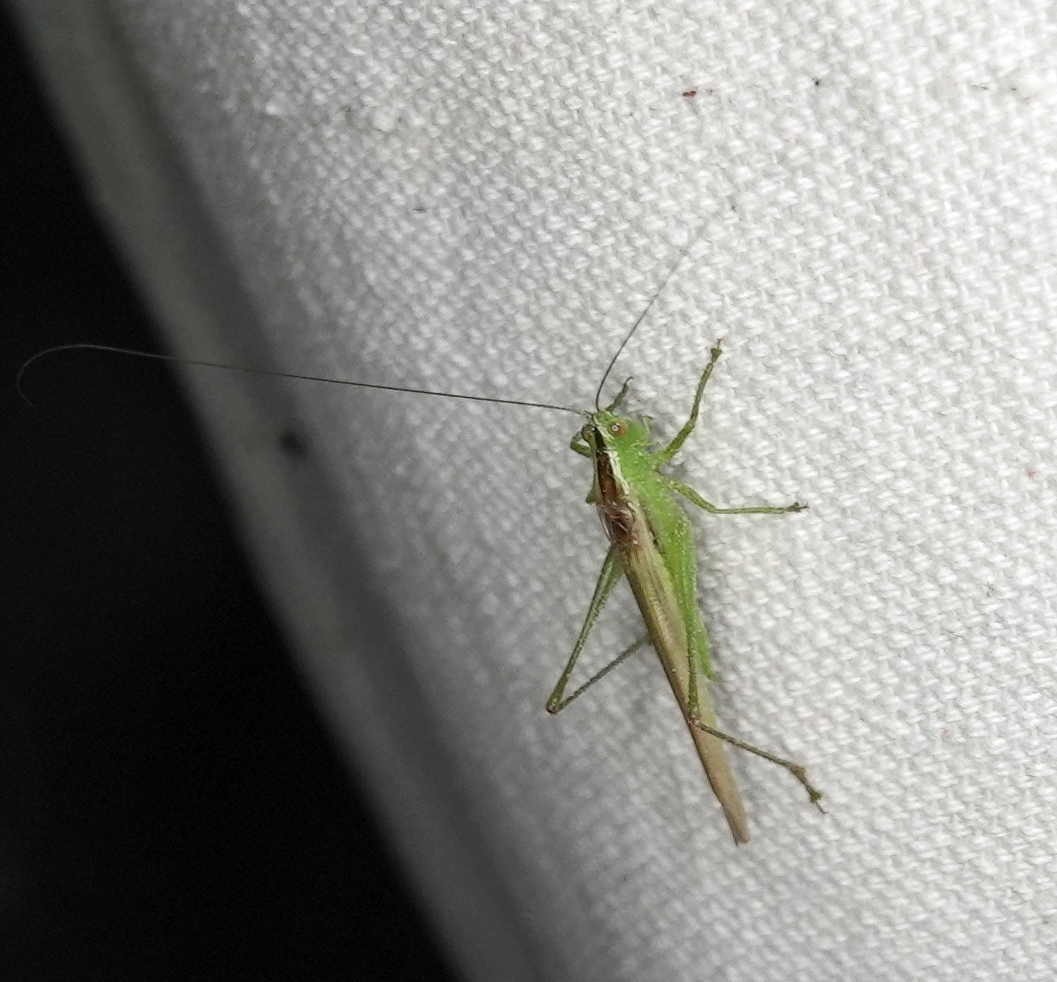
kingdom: Animalia
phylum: Arthropoda
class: Insecta
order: Orthoptera
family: Tettigoniidae
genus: Conocephalus
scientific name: Conocephalus fasciatus
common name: Slender meadow katydid
